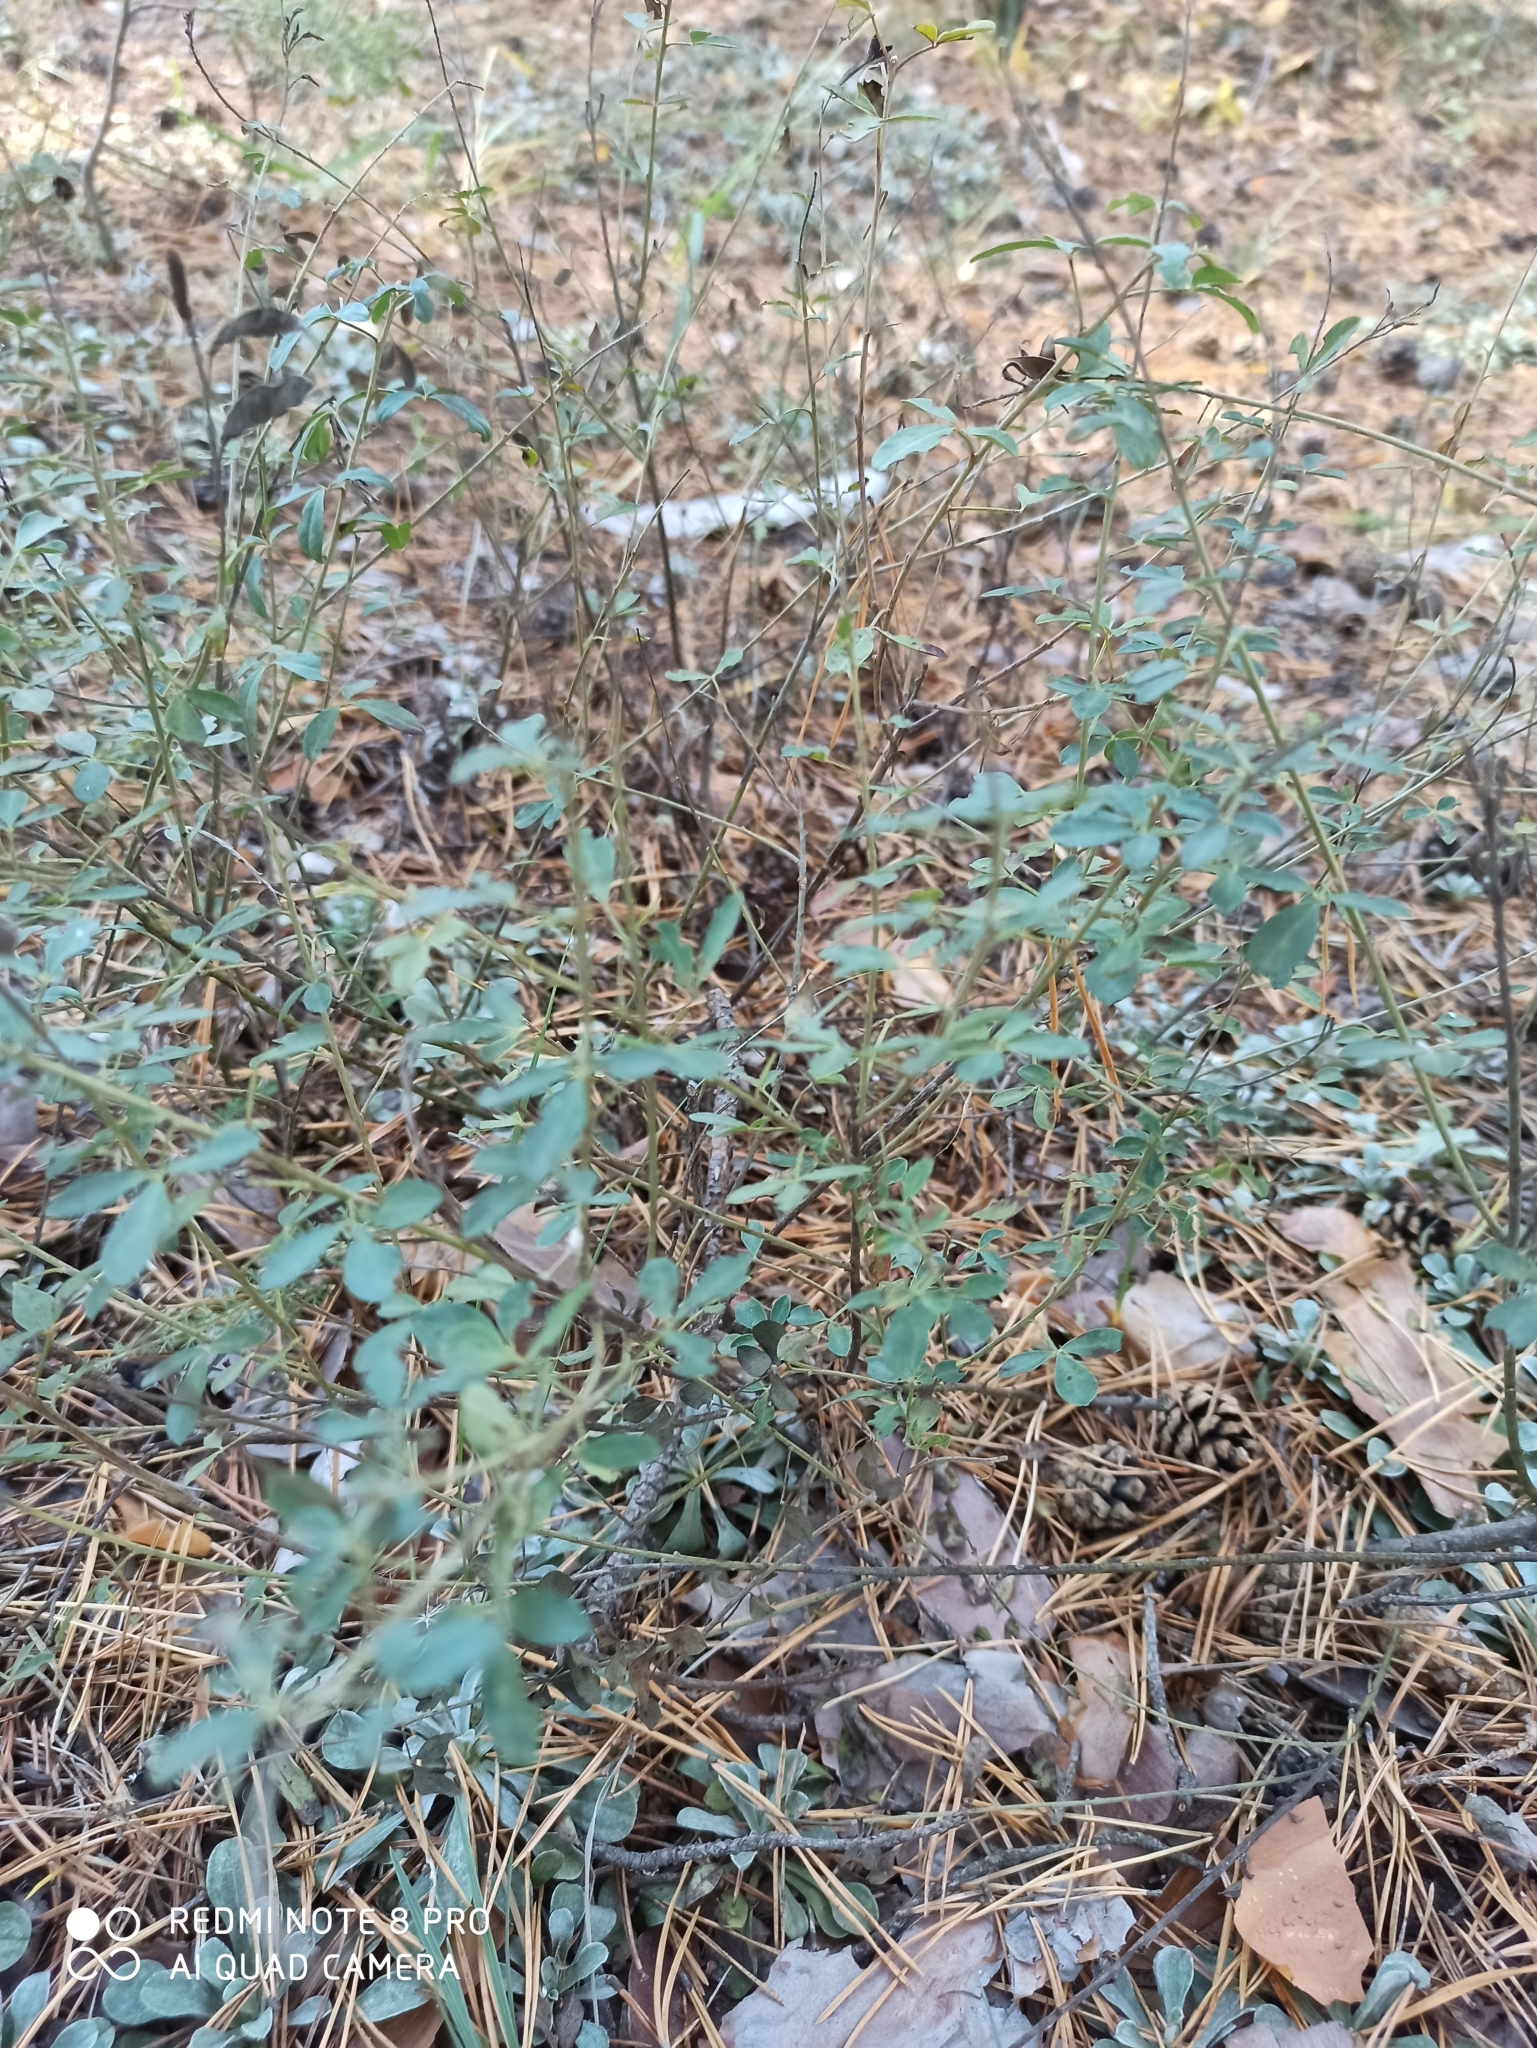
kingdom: Plantae
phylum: Tracheophyta
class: Magnoliopsida
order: Fabales
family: Fabaceae
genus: Cytisus
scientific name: Cytisus nigricans
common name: Black broom
